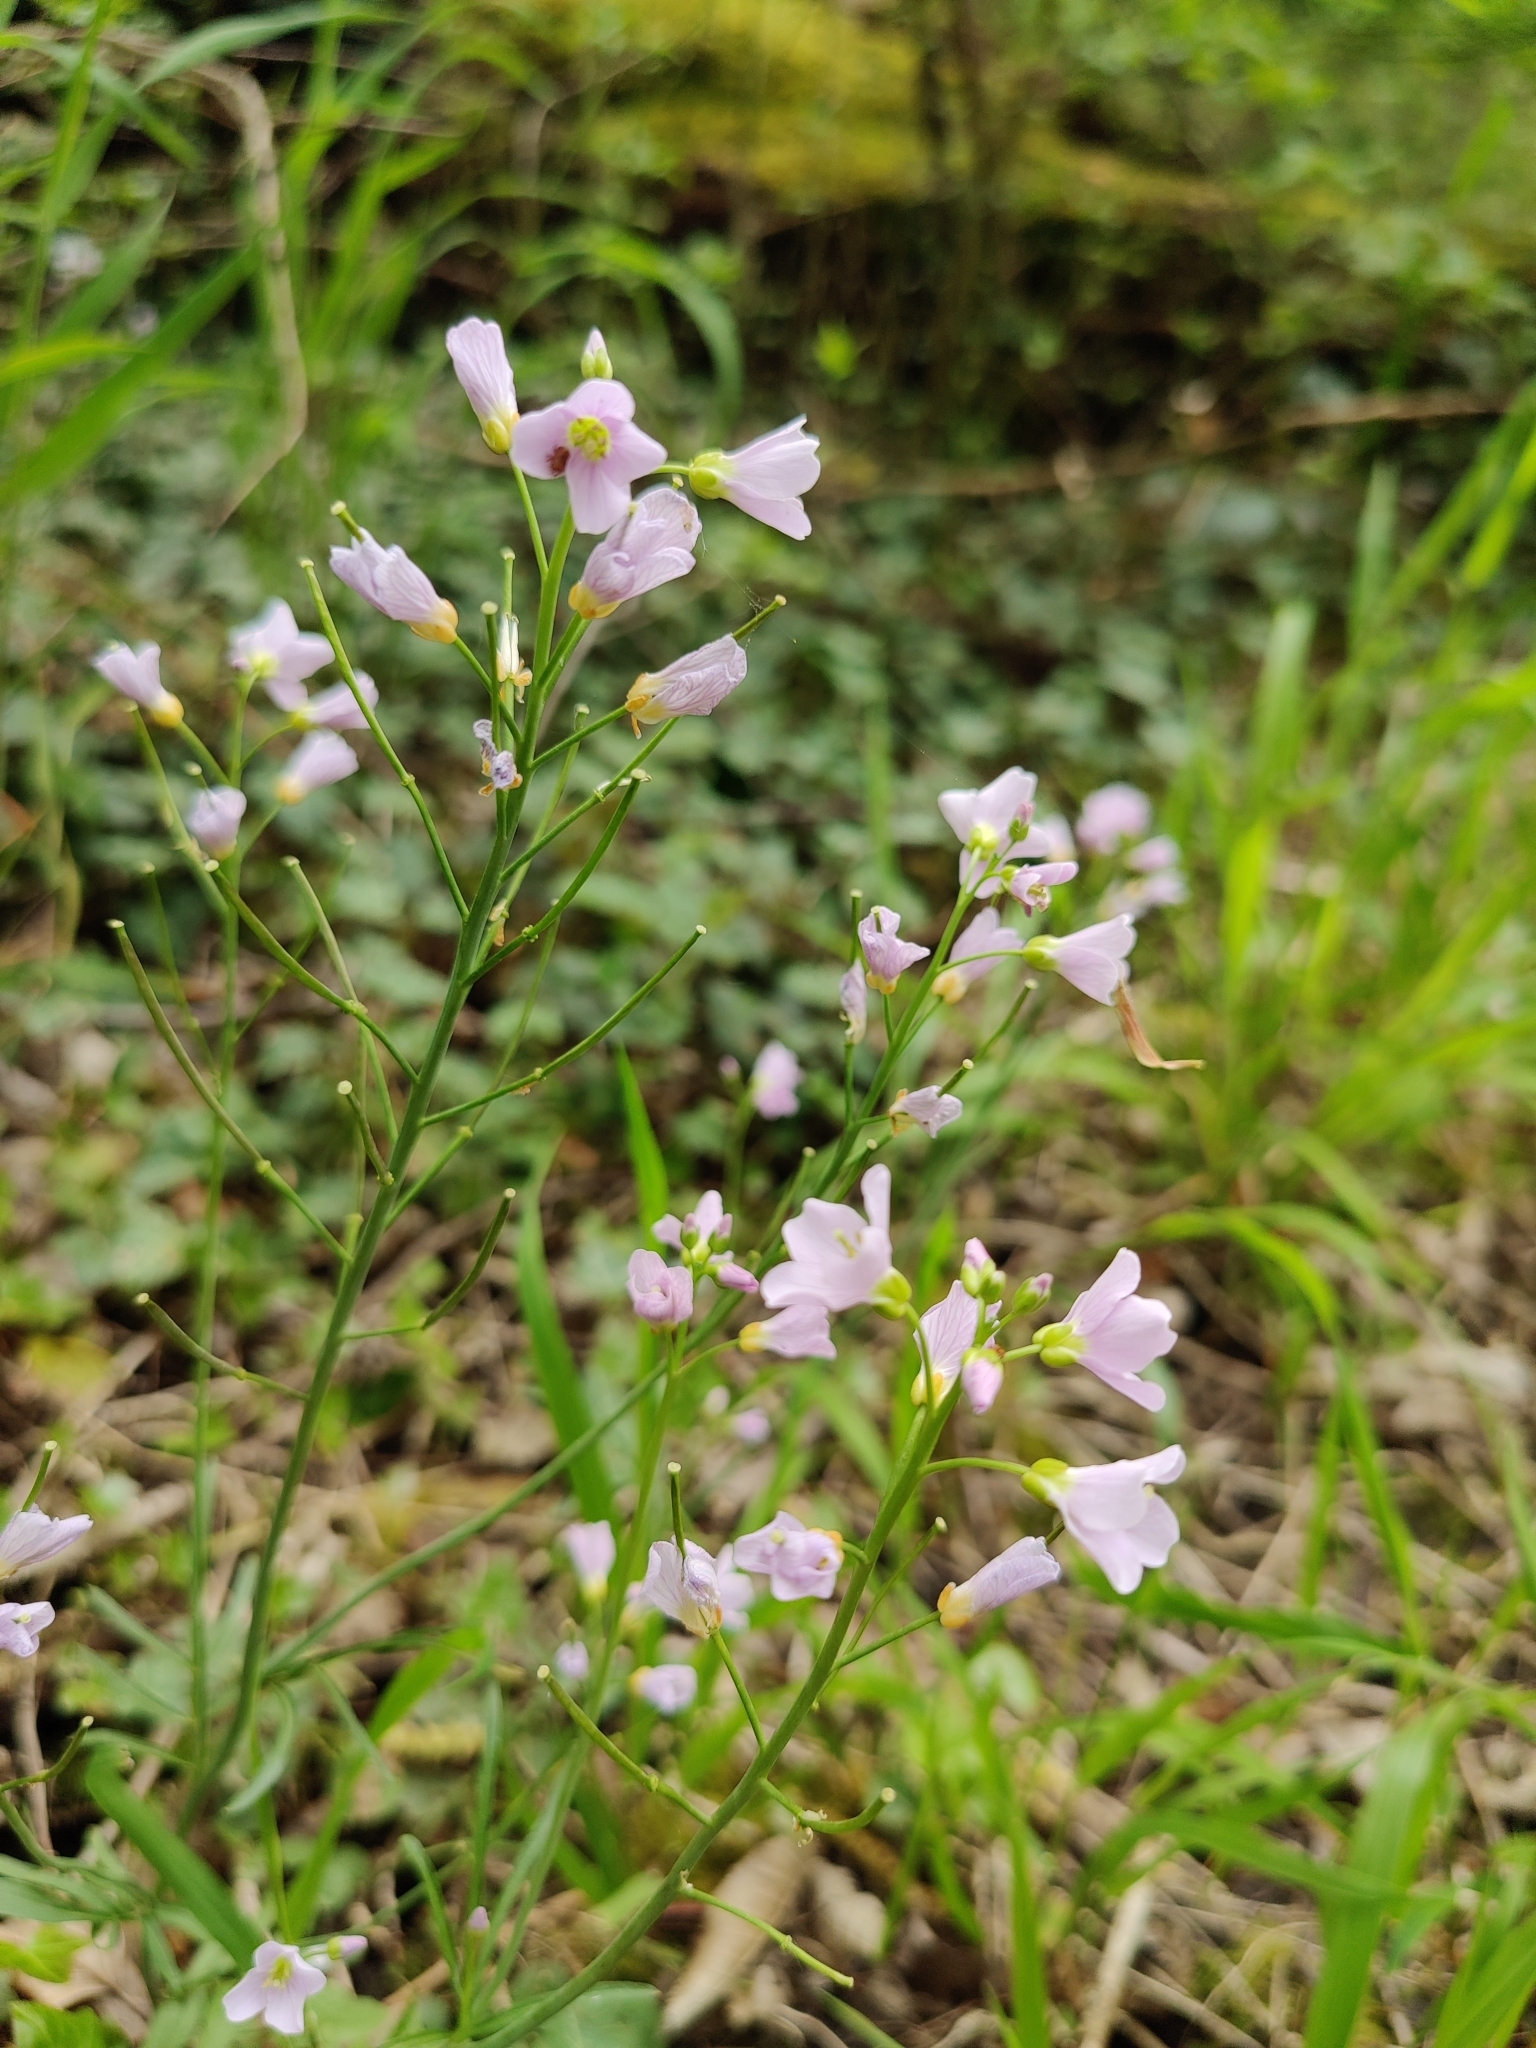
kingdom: Plantae
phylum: Tracheophyta
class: Magnoliopsida
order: Brassicales
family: Brassicaceae
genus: Cardamine
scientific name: Cardamine pratensis
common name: Cuckoo flower
